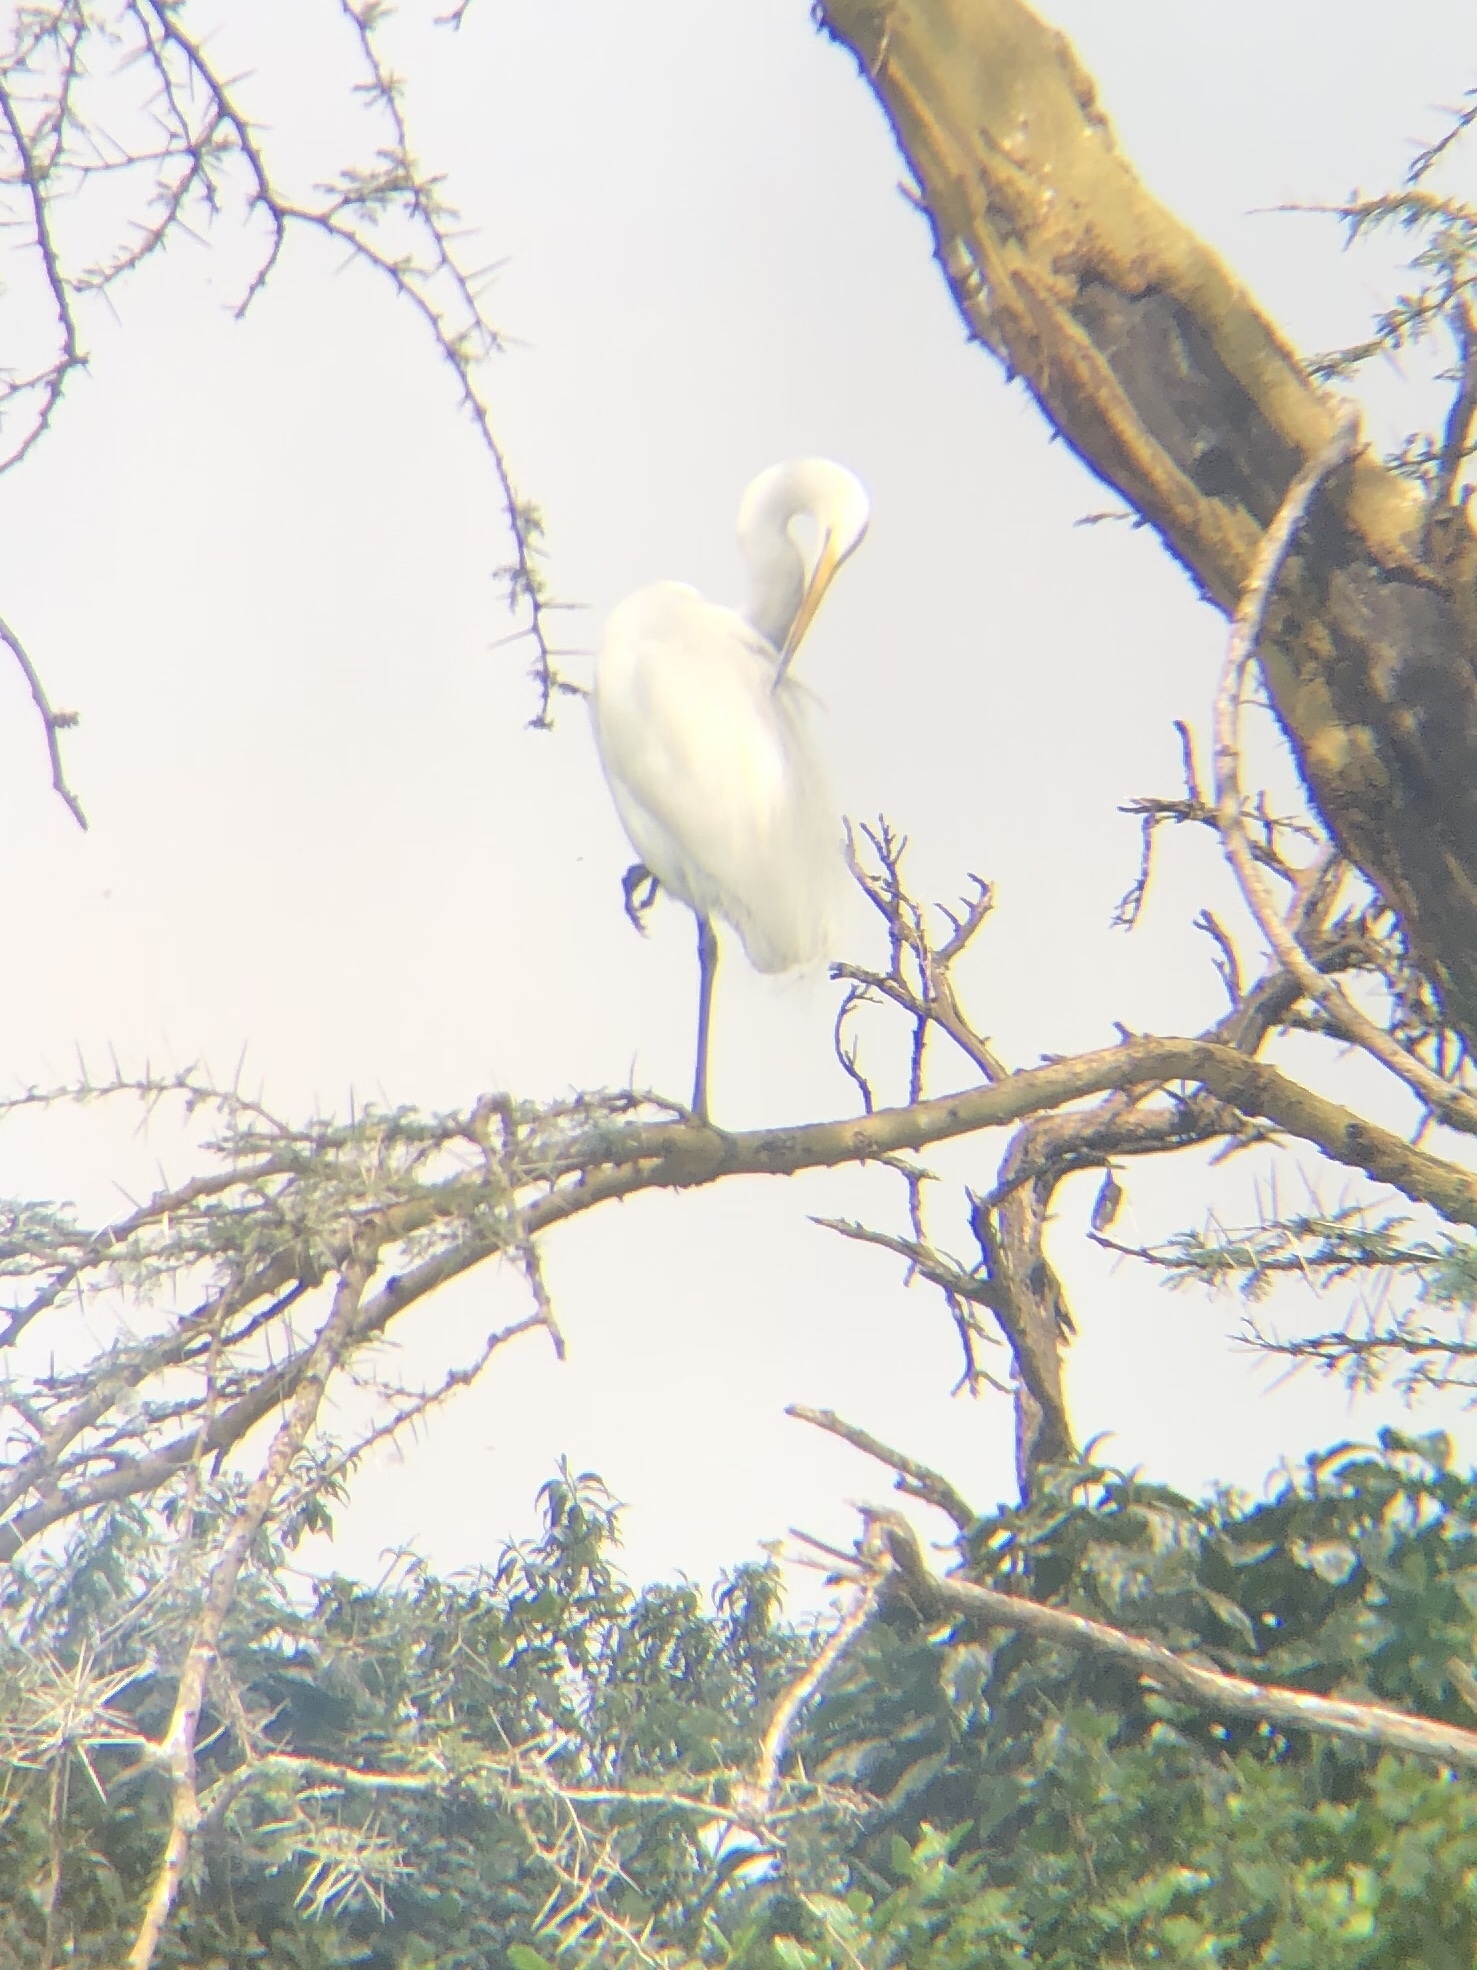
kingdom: Animalia
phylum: Chordata
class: Aves
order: Pelecaniformes
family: Ardeidae
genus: Ardea
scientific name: Ardea alba
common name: Great egret
